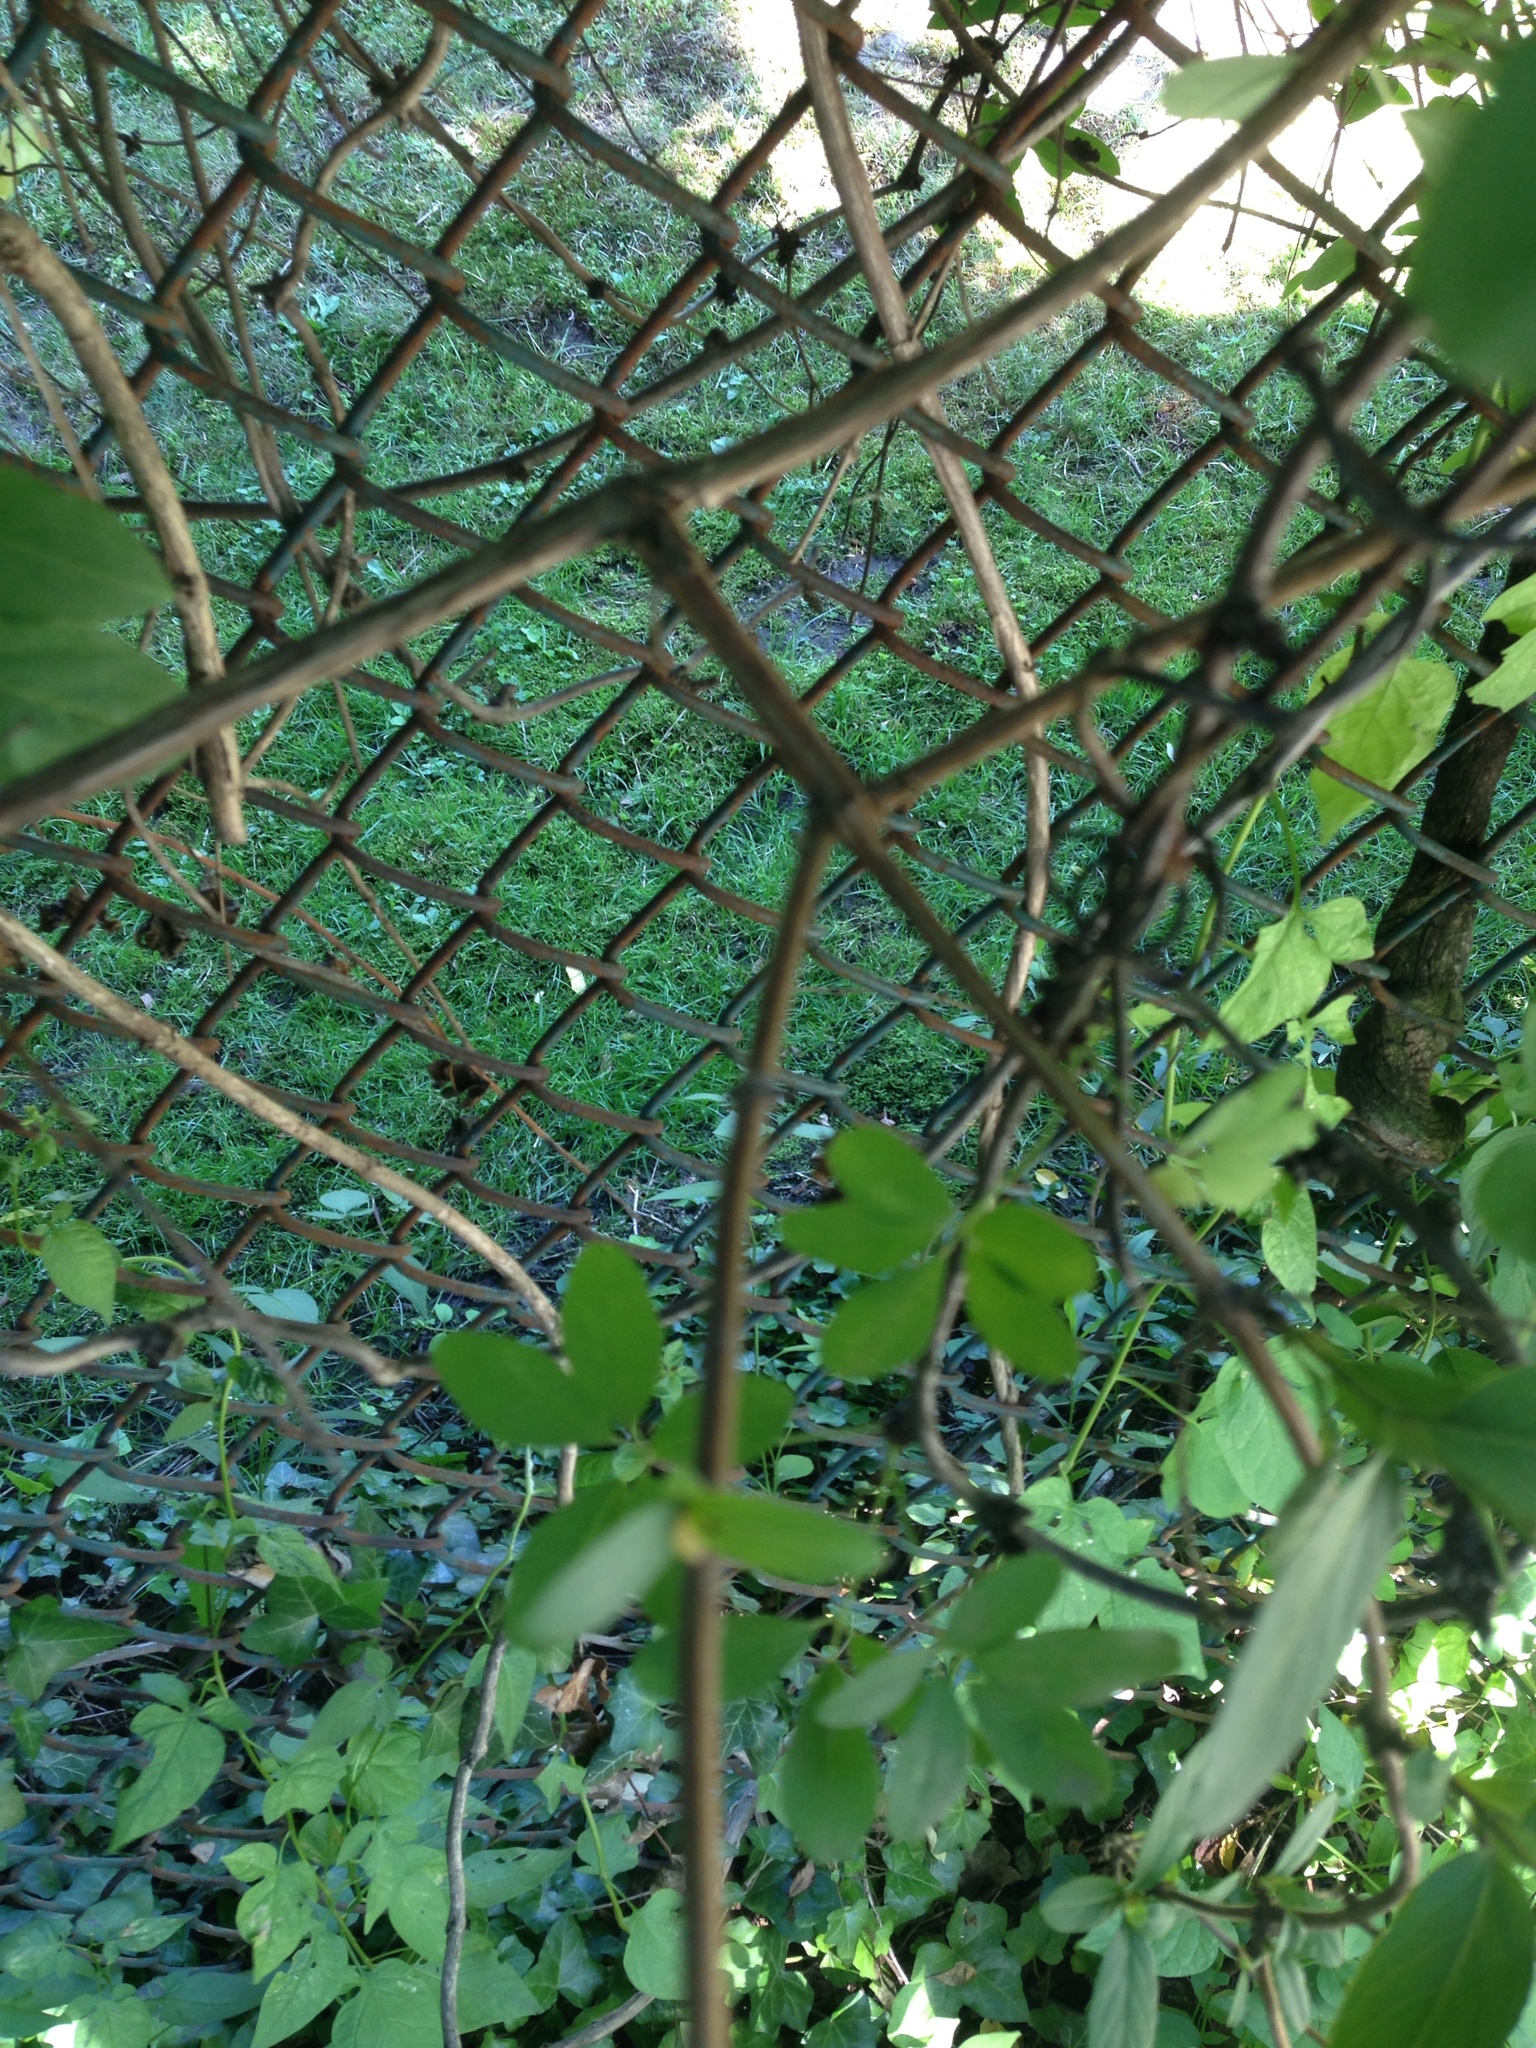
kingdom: Plantae
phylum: Tracheophyta
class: Magnoliopsida
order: Dipsacales
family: Caprifoliaceae
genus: Lonicera
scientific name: Lonicera japonica
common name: Japanese honeysuckle
